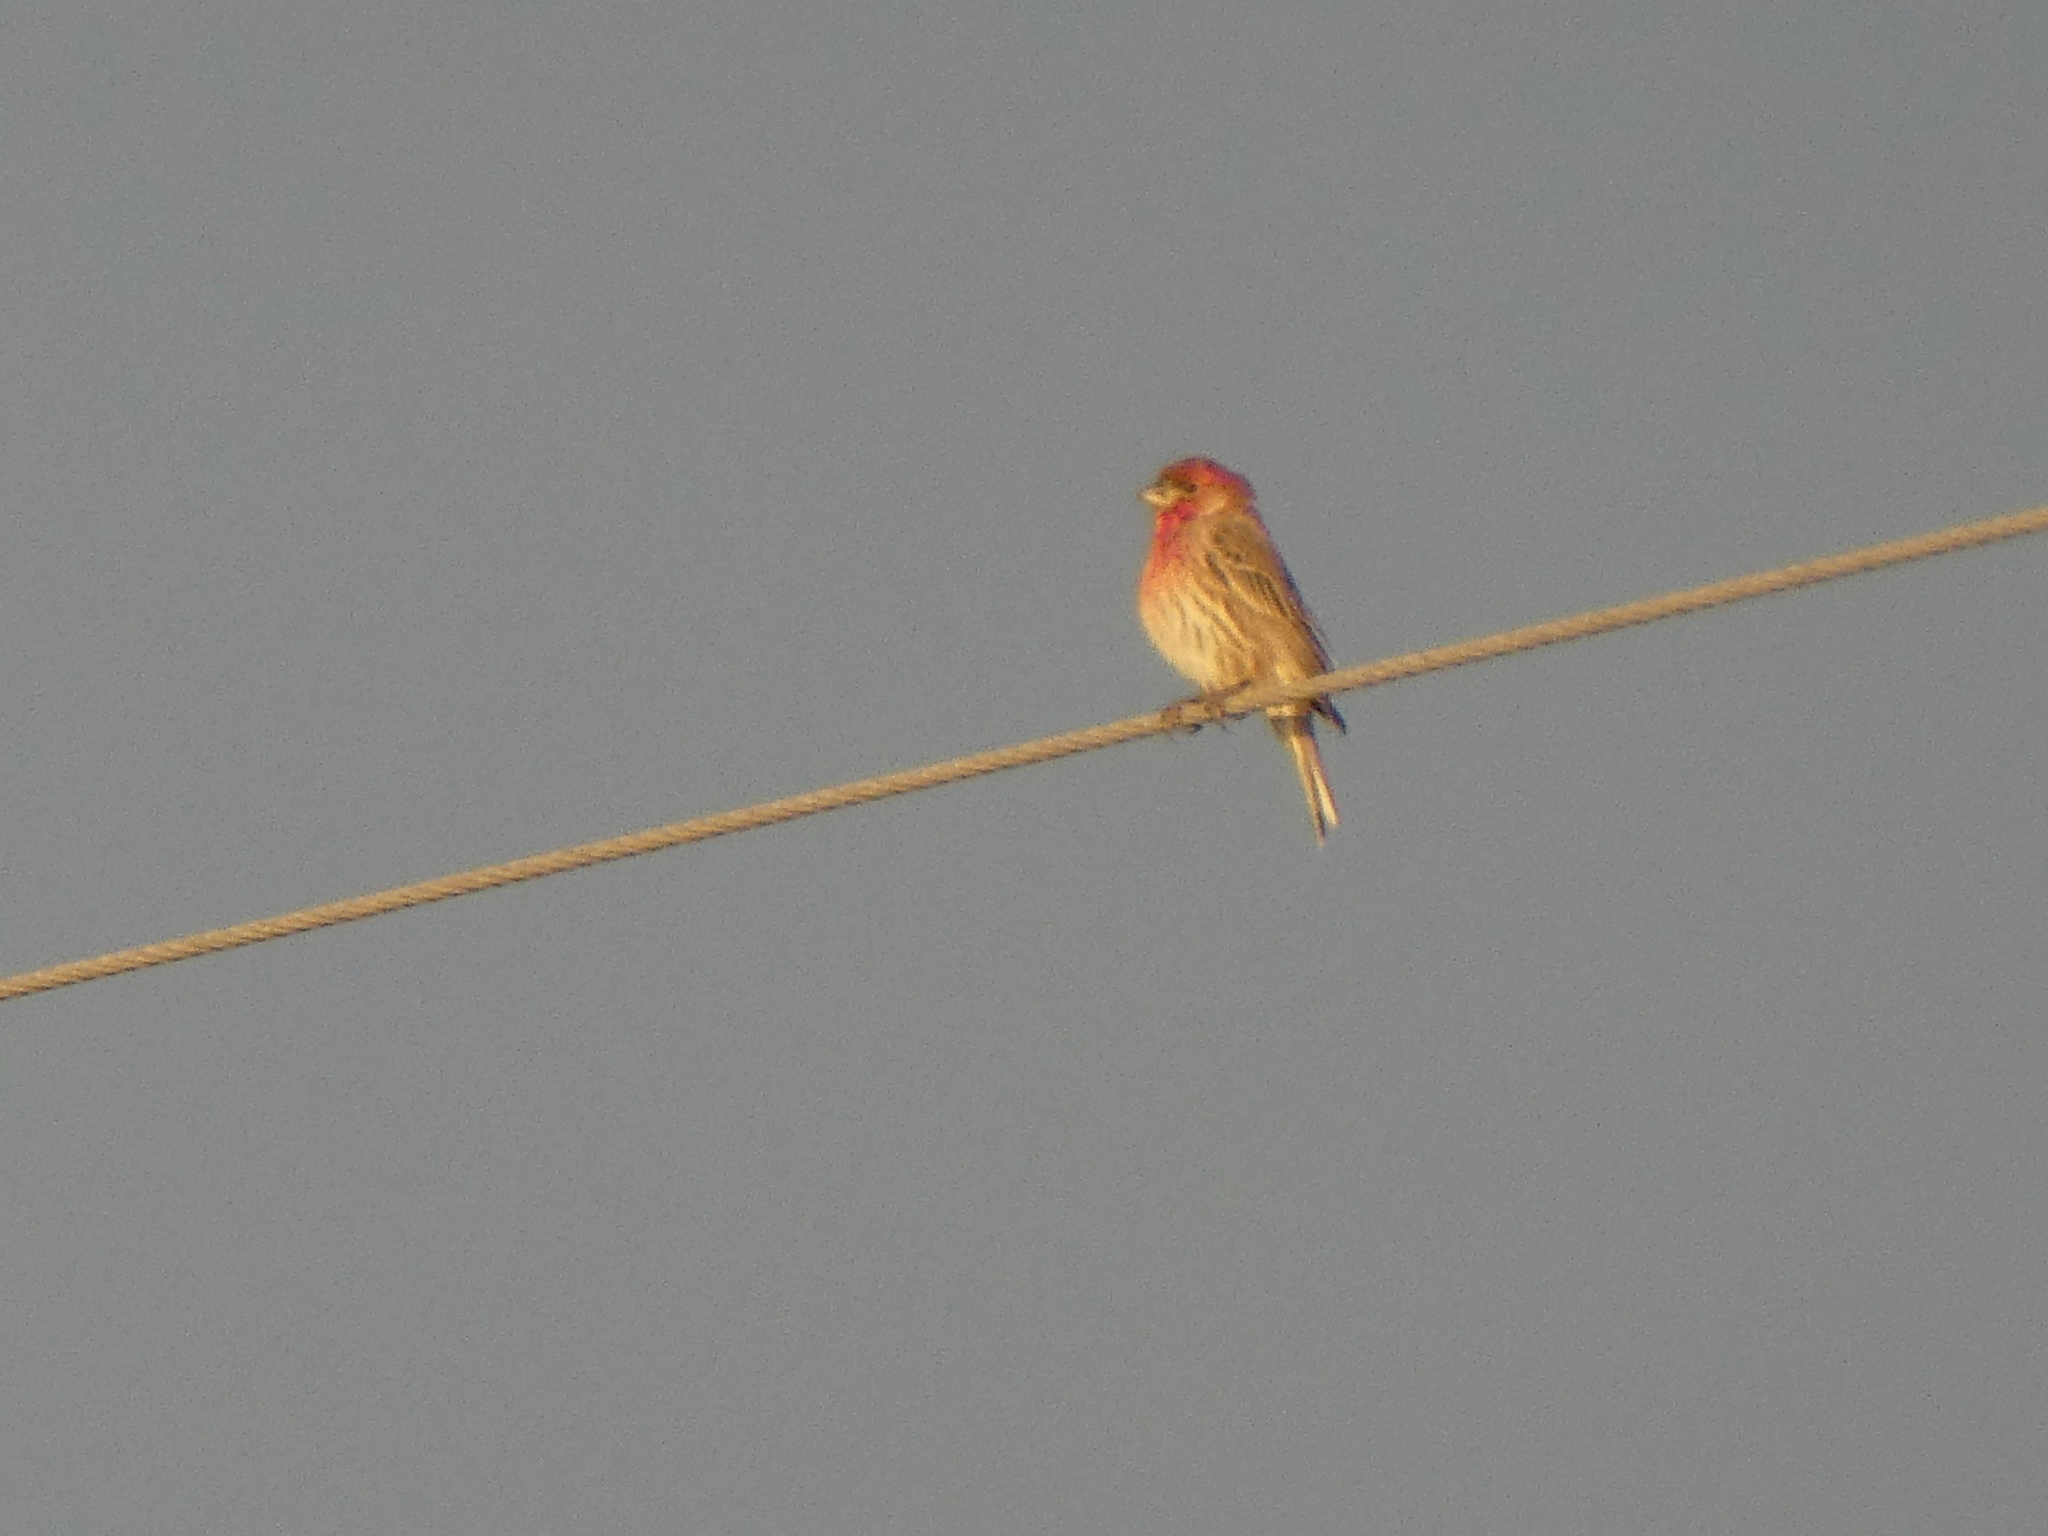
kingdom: Animalia
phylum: Chordata
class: Aves
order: Passeriformes
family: Fringillidae
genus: Haemorhous
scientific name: Haemorhous mexicanus
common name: House finch
